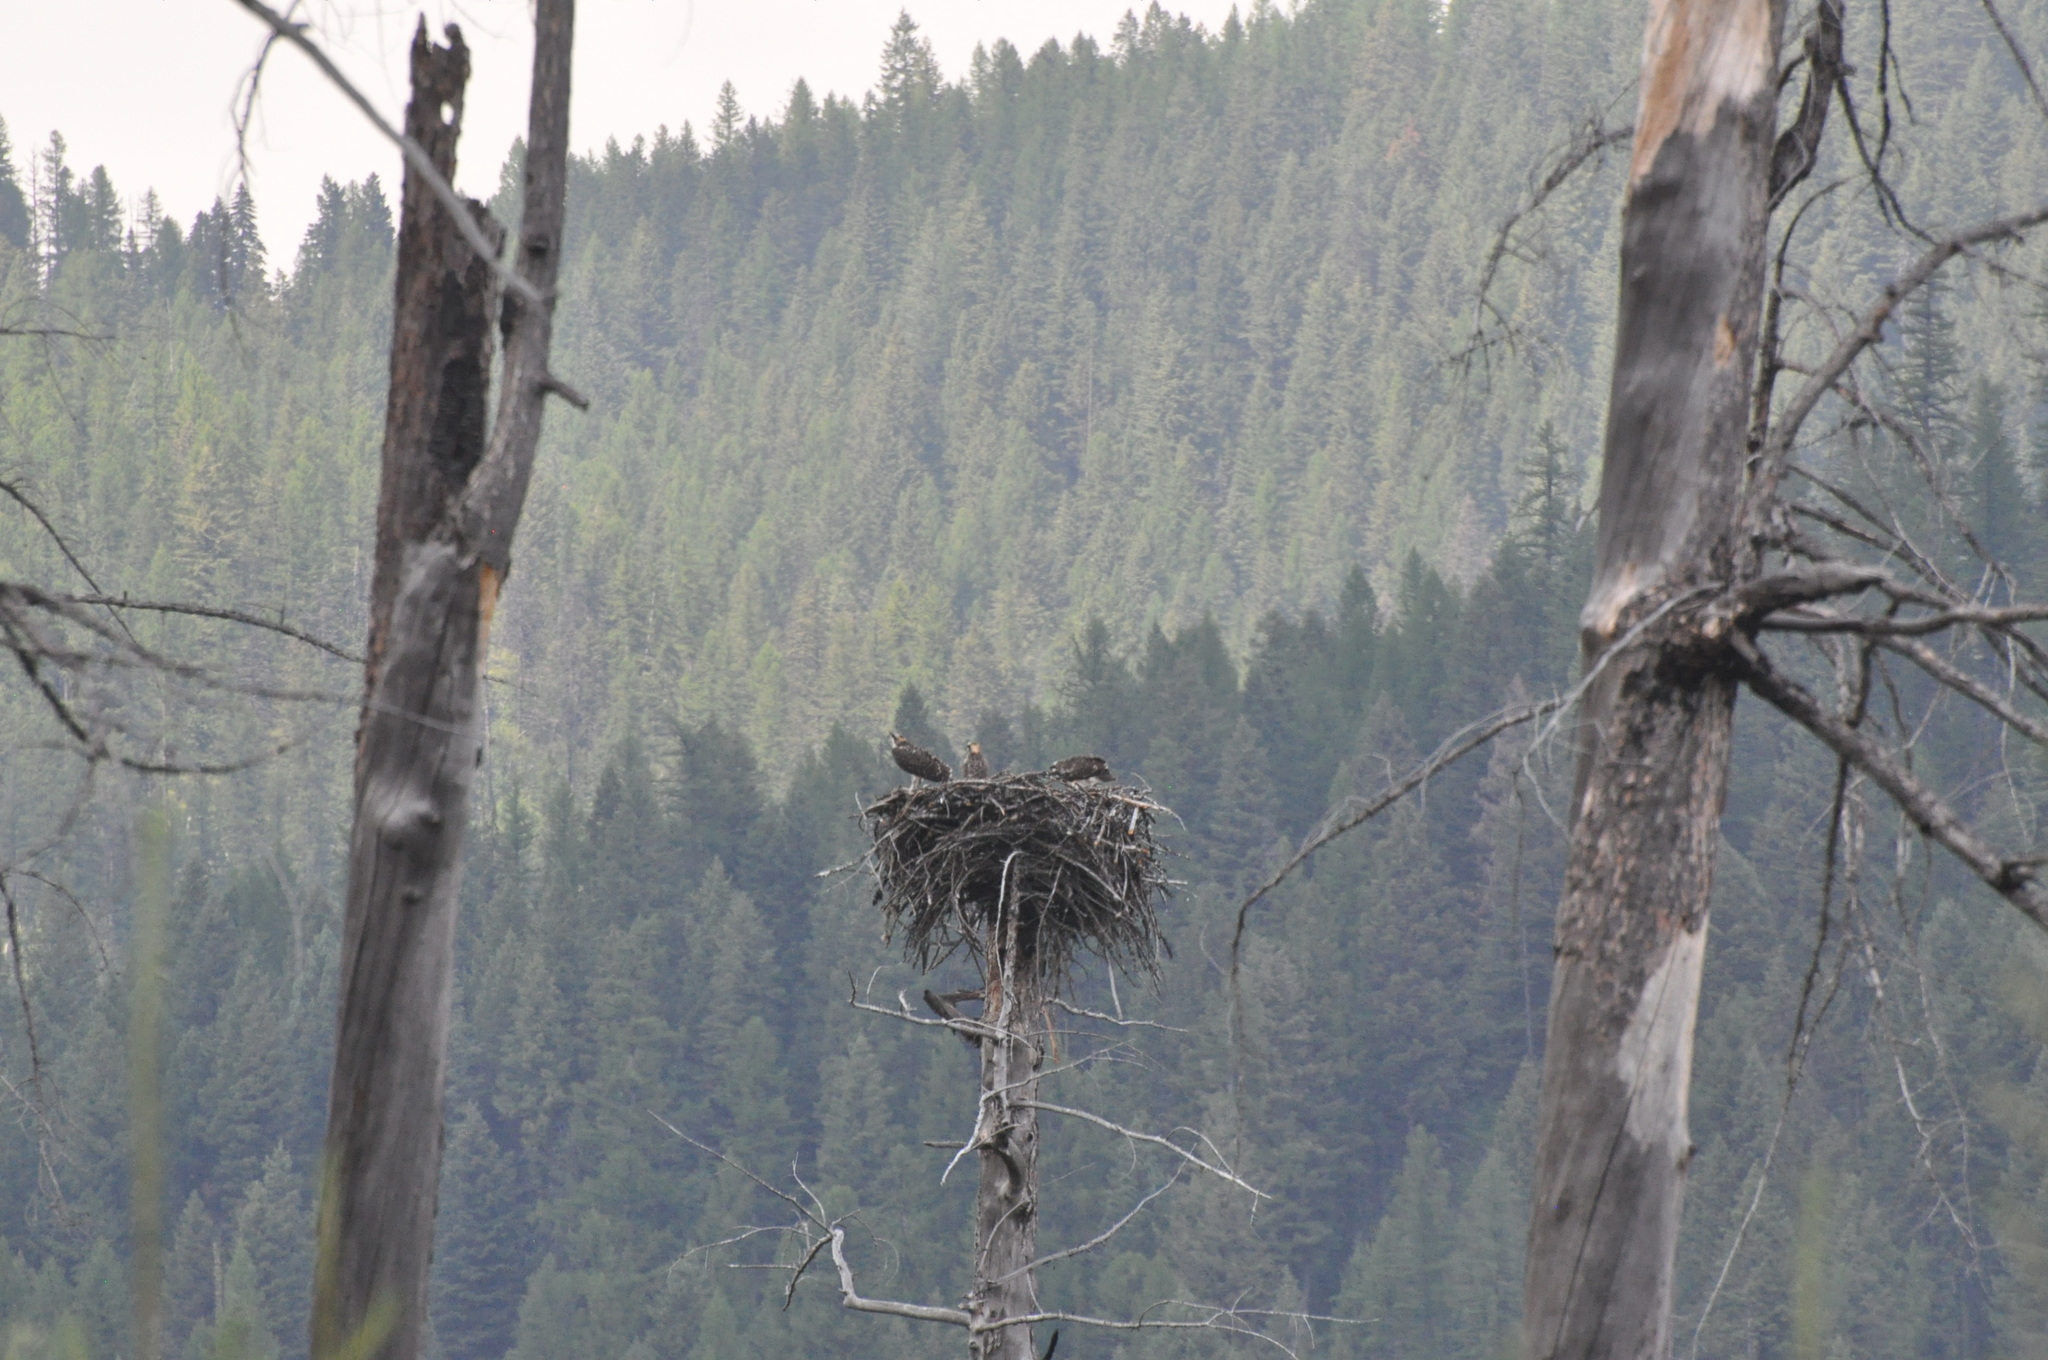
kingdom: Animalia
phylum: Chordata
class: Aves
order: Accipitriformes
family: Pandionidae
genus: Pandion
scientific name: Pandion haliaetus
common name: Osprey
